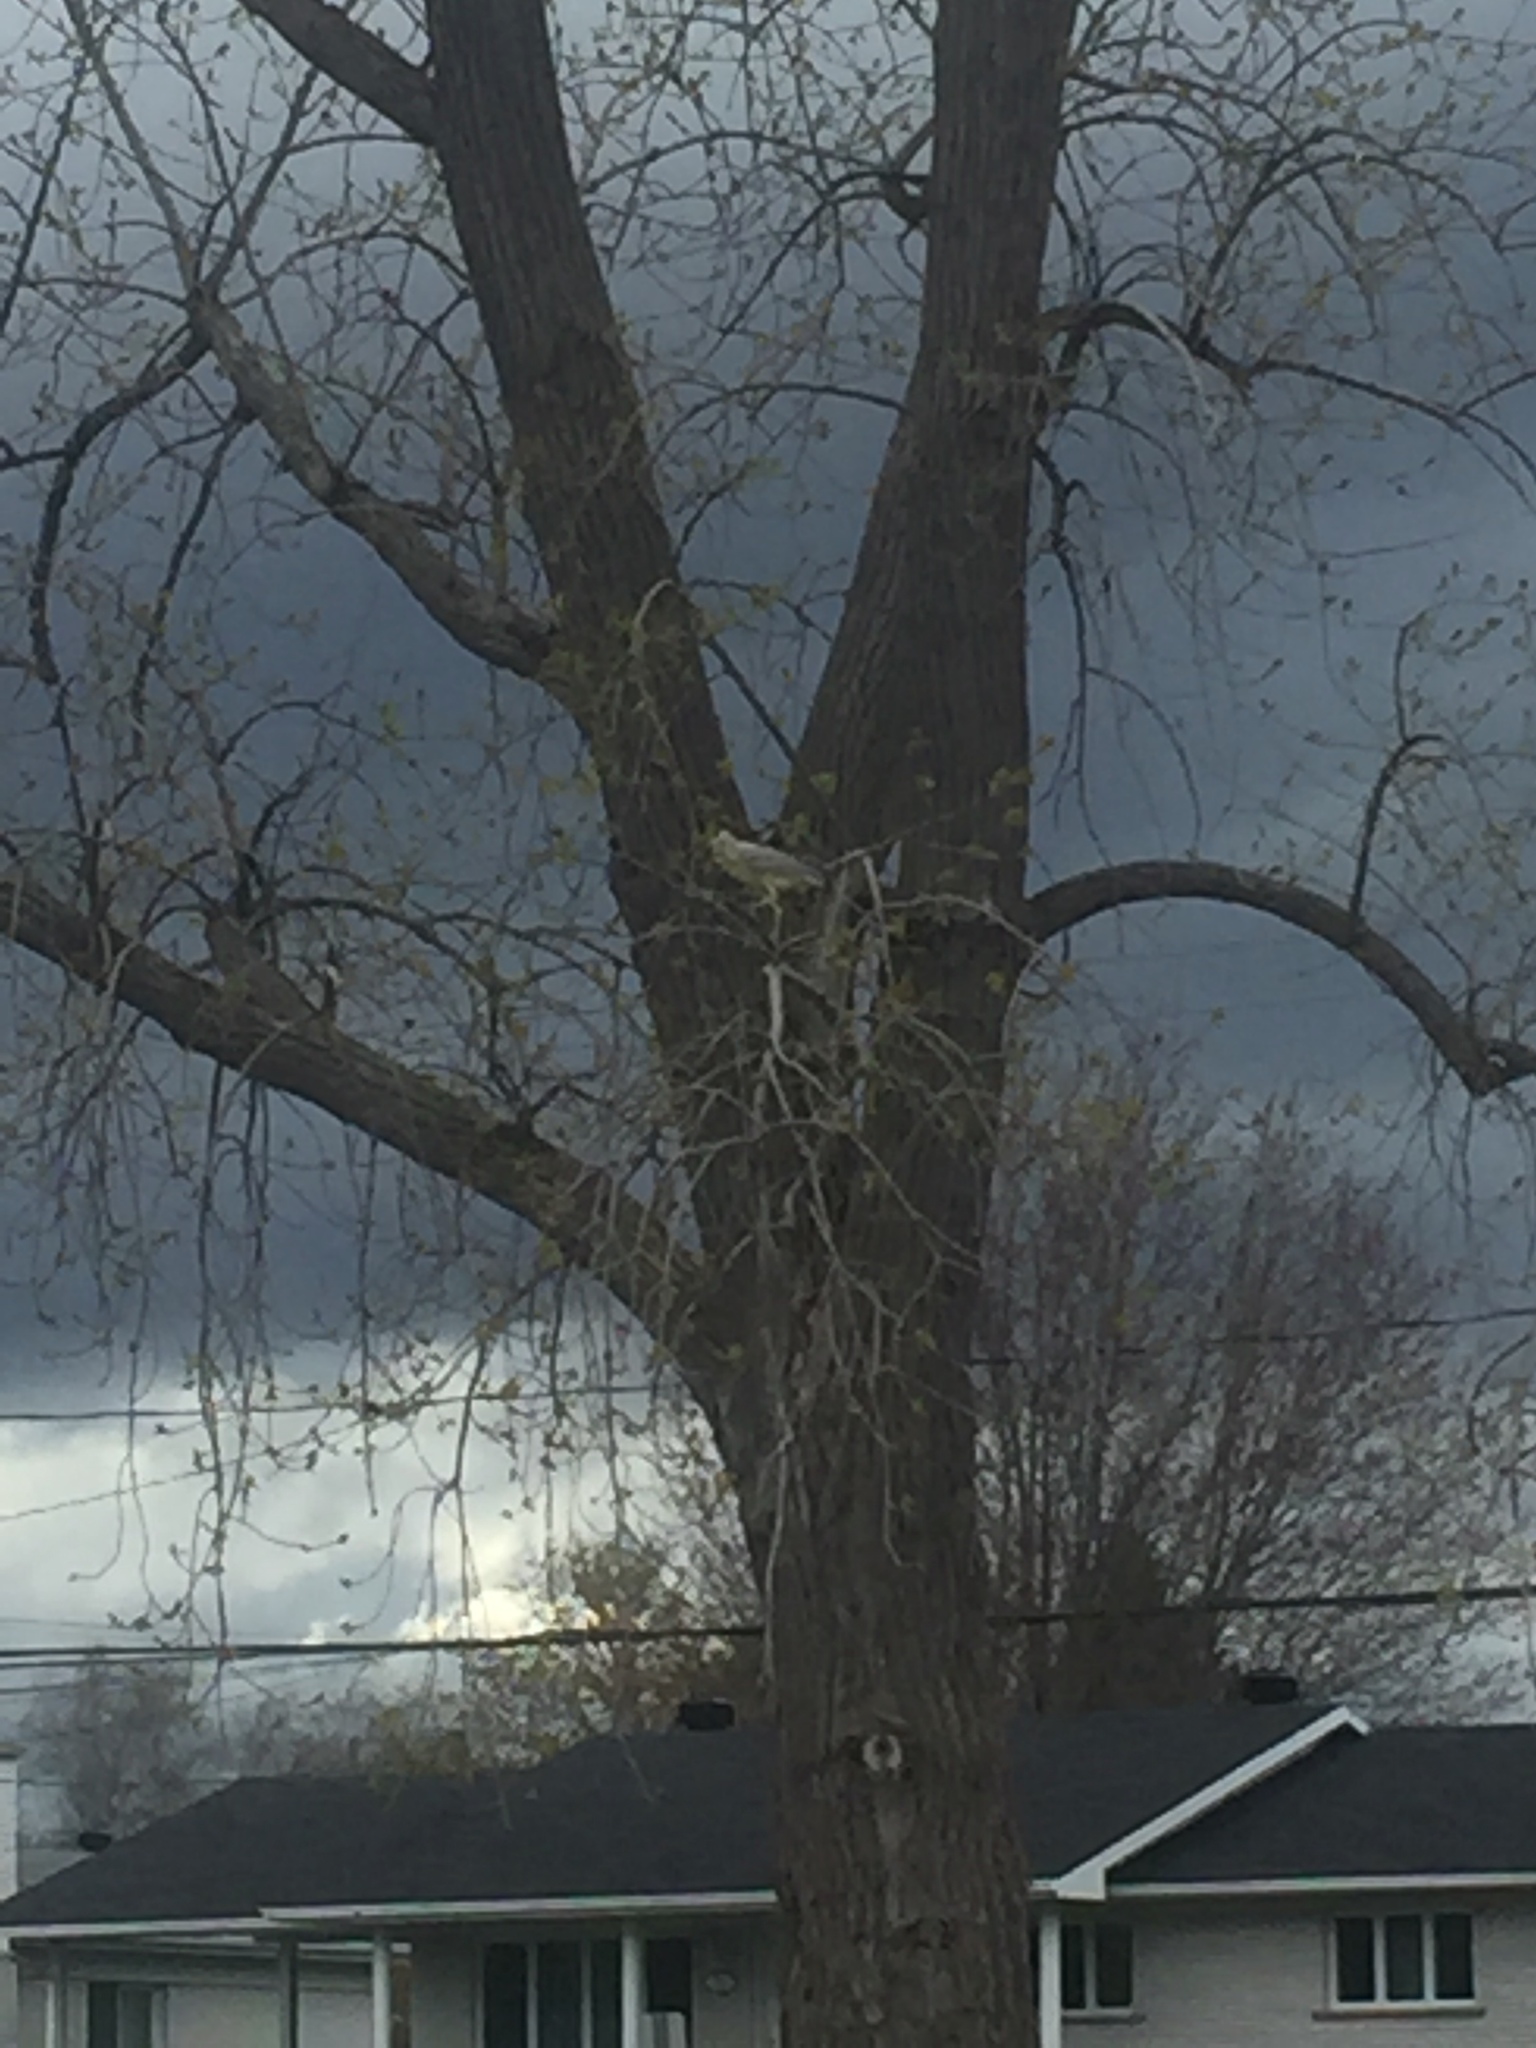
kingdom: Animalia
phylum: Chordata
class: Aves
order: Pelecaniformes
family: Ardeidae
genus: Nycticorax
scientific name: Nycticorax nycticorax
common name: Black-crowned night heron
